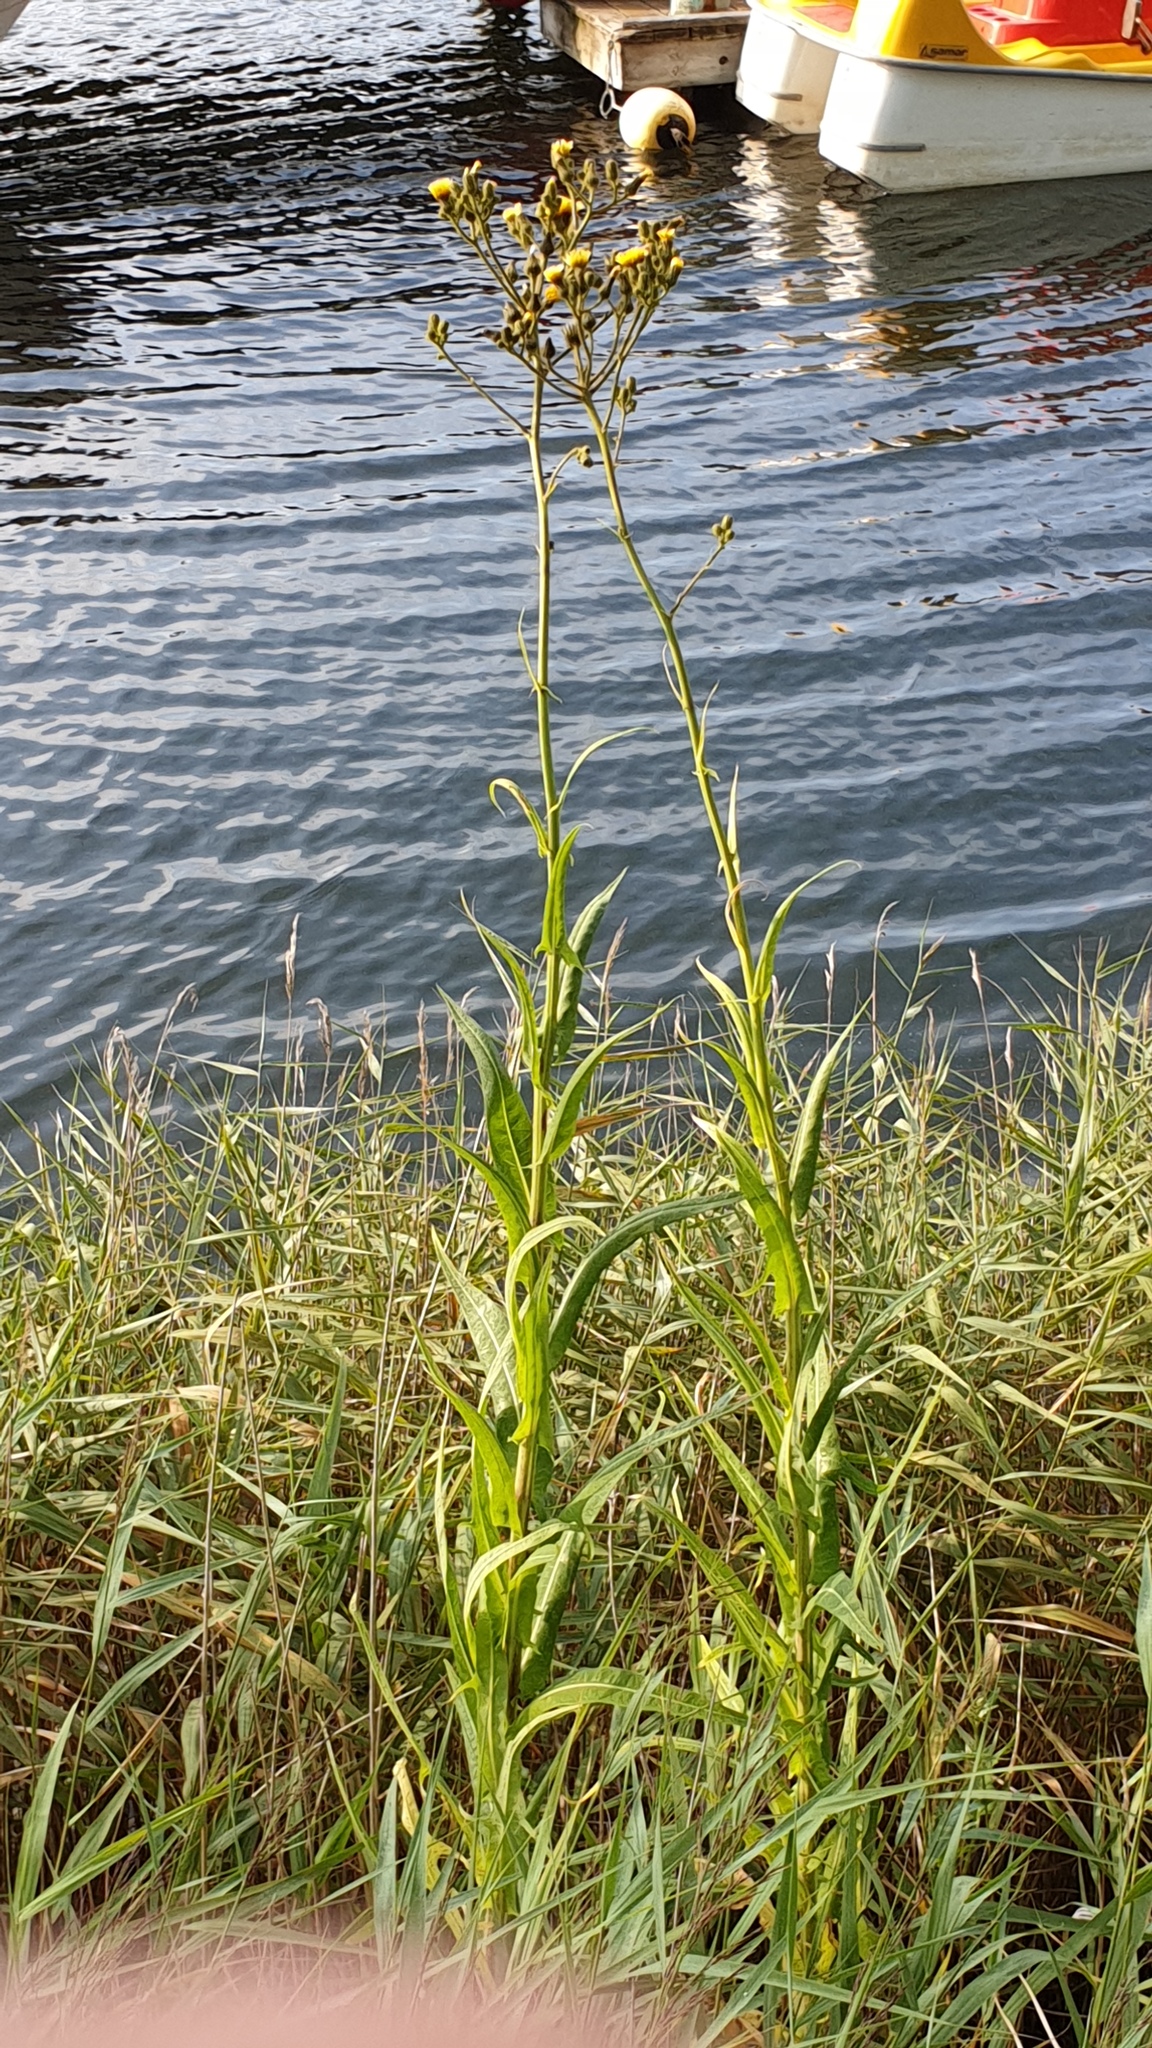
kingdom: Plantae
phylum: Tracheophyta
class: Magnoliopsida
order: Asterales
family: Asteraceae
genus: Sonchus
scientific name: Sonchus palustris
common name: Marsh sow-thistle
